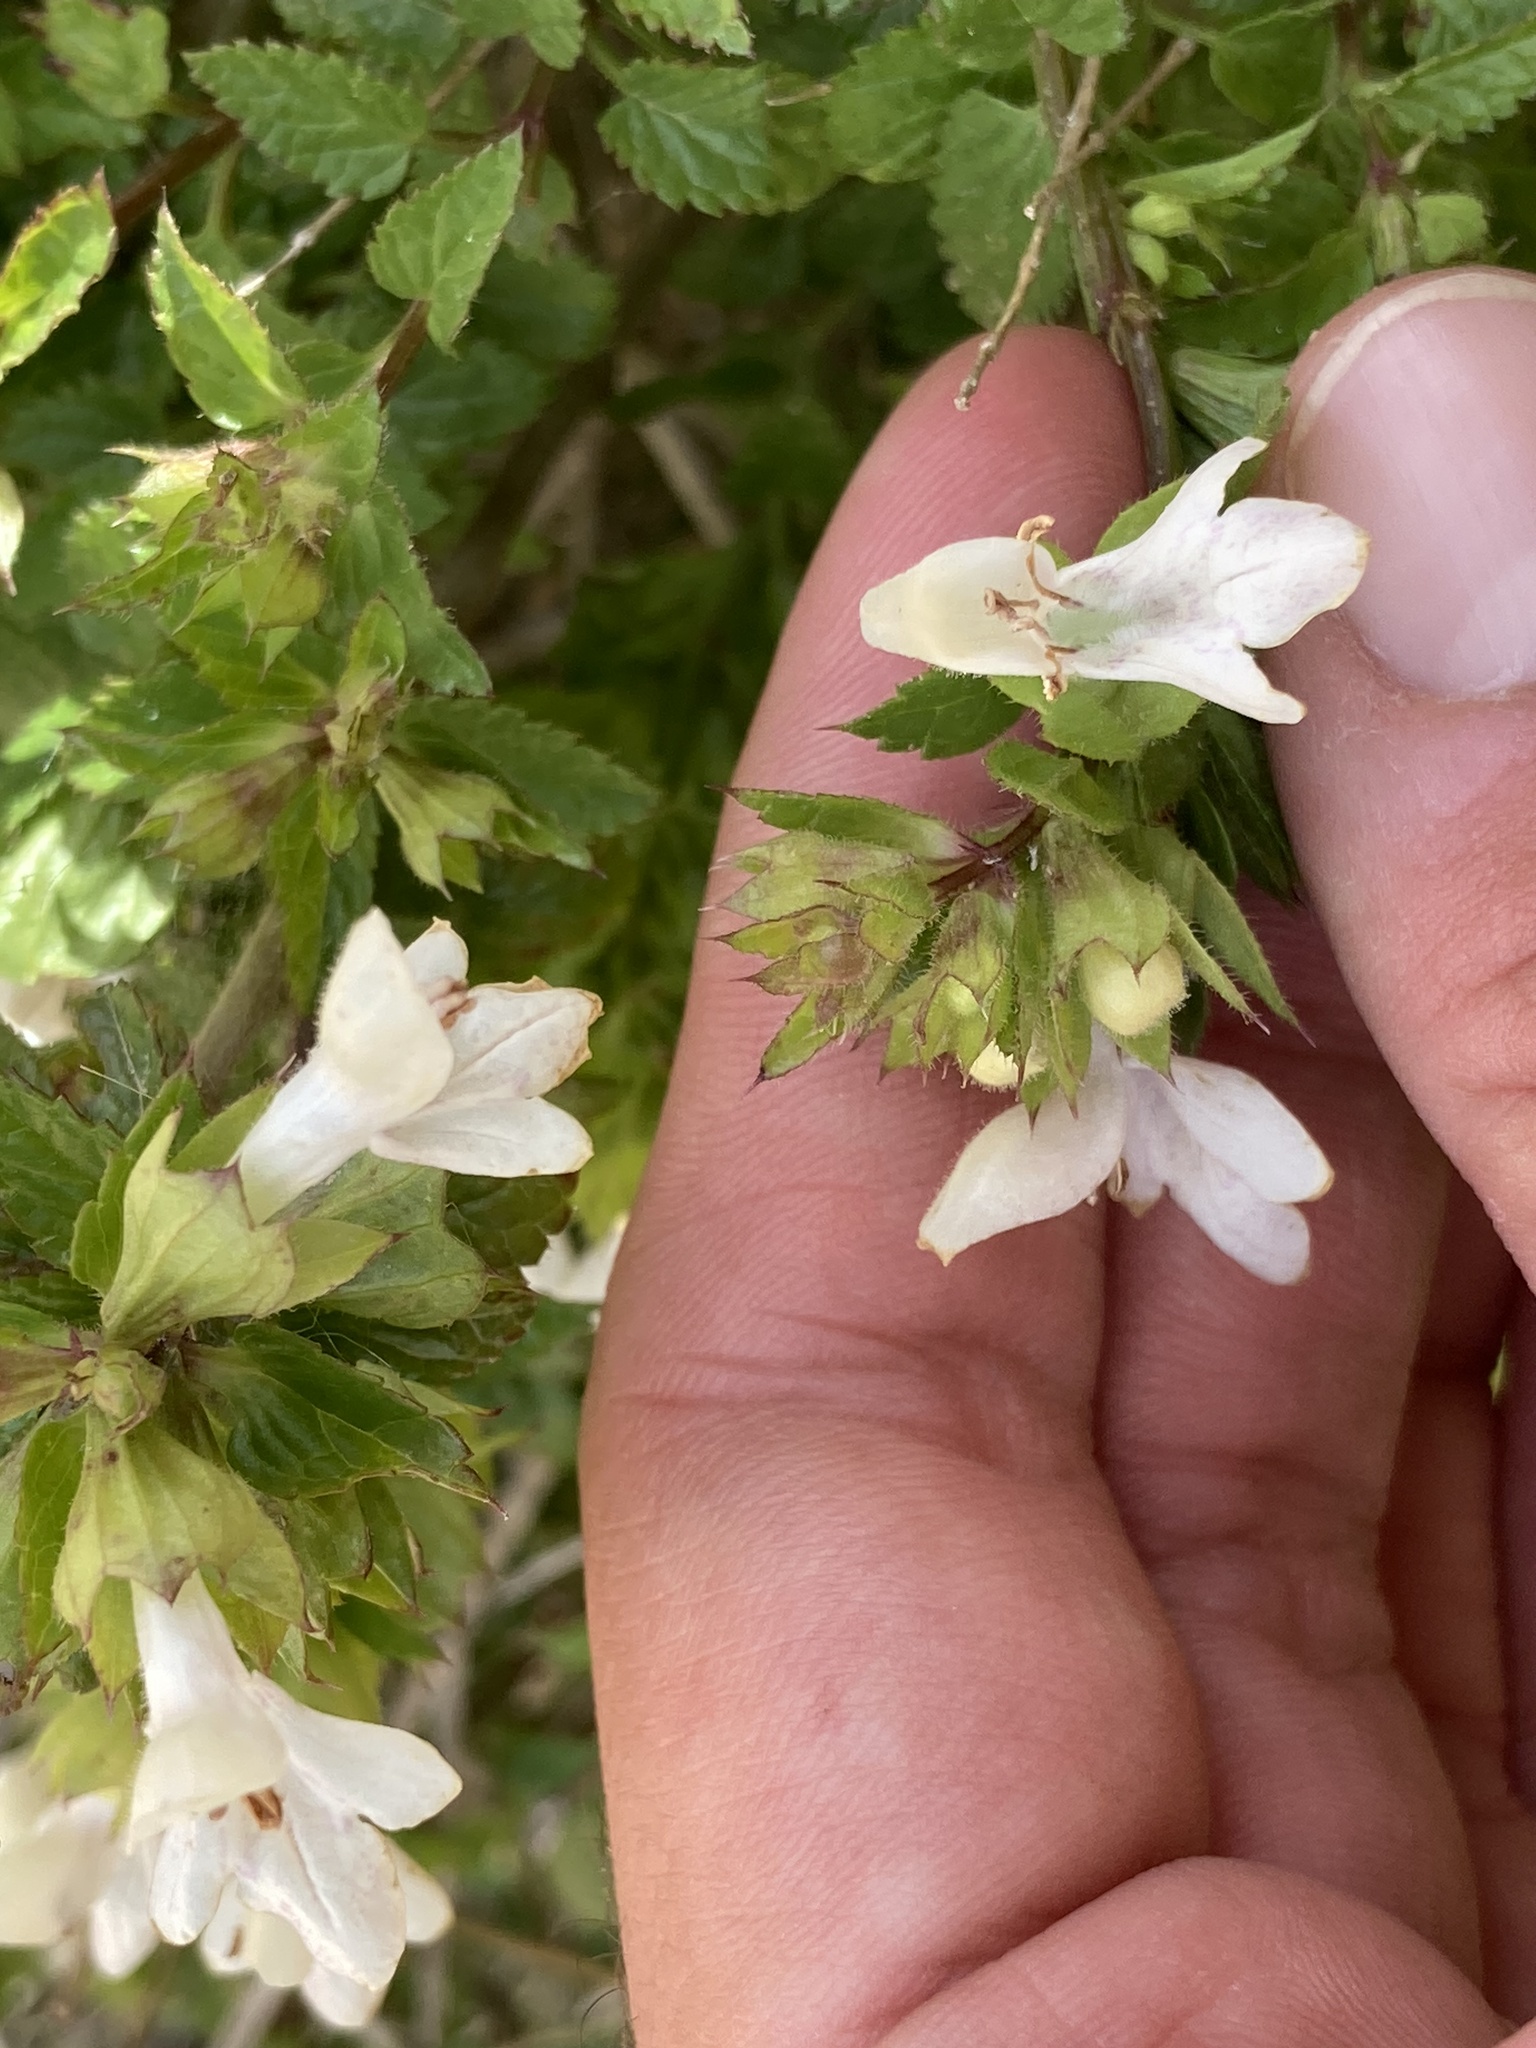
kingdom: Plantae
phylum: Tracheophyta
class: Magnoliopsida
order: Lamiales
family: Lamiaceae
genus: Prasium
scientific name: Prasium majus
